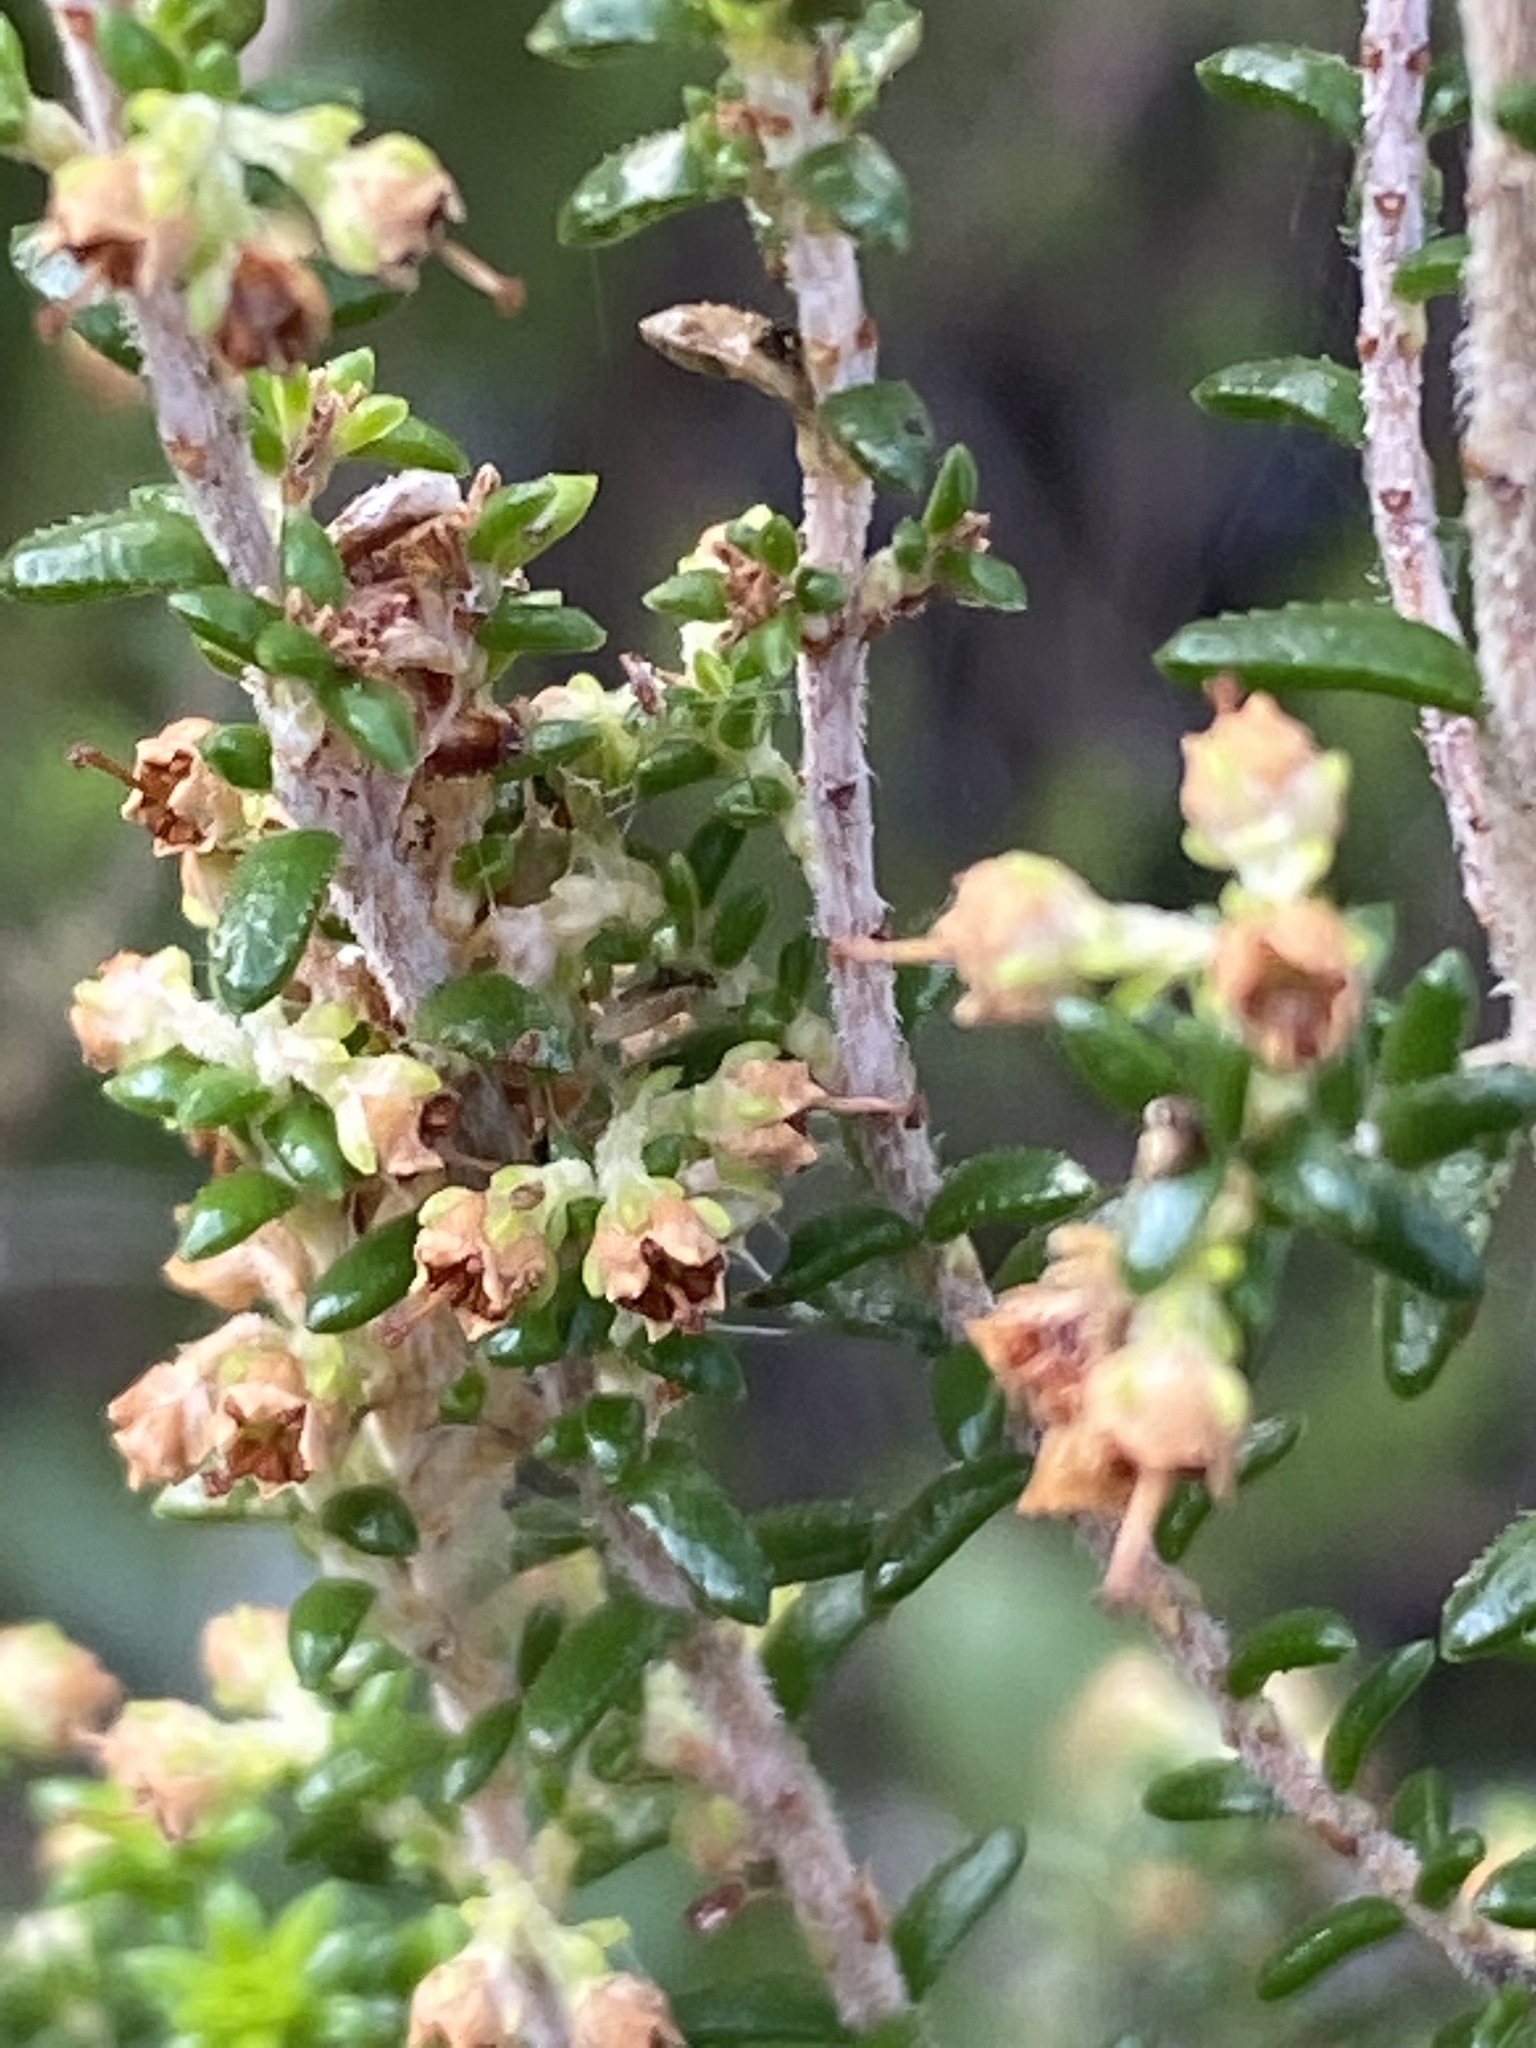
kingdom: Plantae
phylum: Tracheophyta
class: Magnoliopsida
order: Ericales
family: Ericaceae
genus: Erica
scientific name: Erica arenaria
